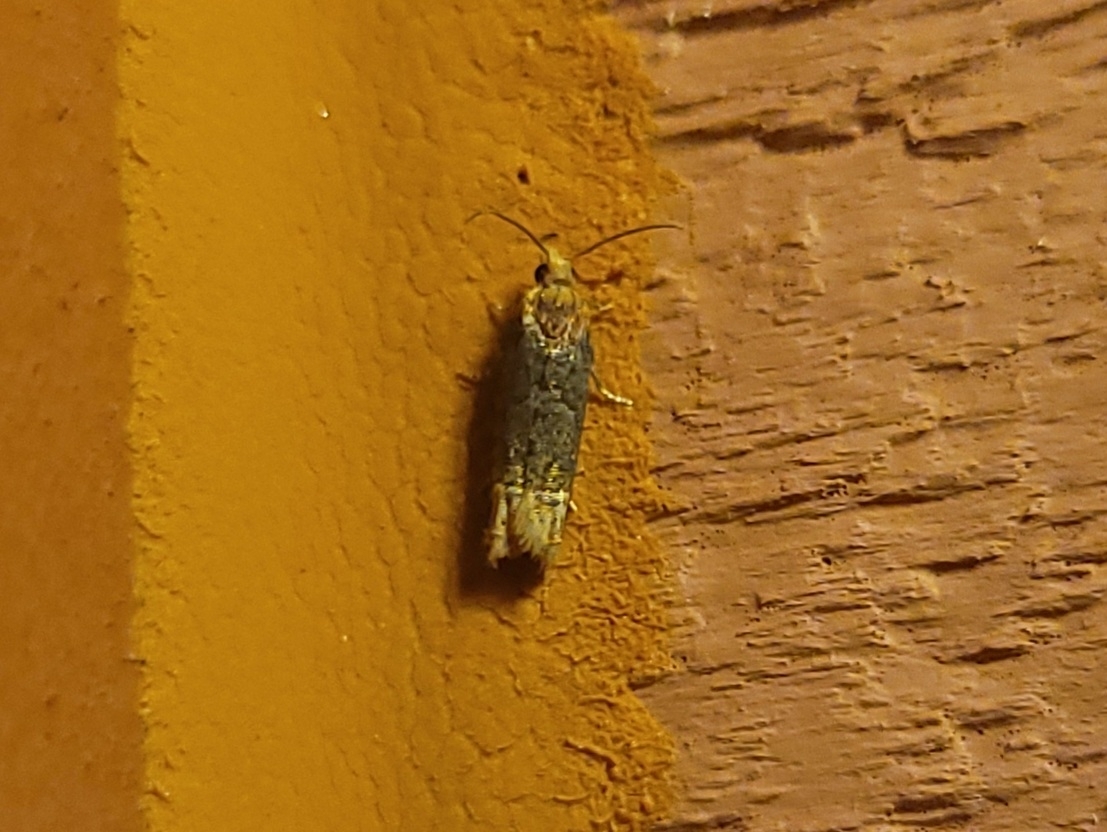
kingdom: Animalia
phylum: Arthropoda
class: Insecta
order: Lepidoptera
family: Tortricidae
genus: Eucosma
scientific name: Eucosma ochroterminana
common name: Buff-tipped eucosma moth
